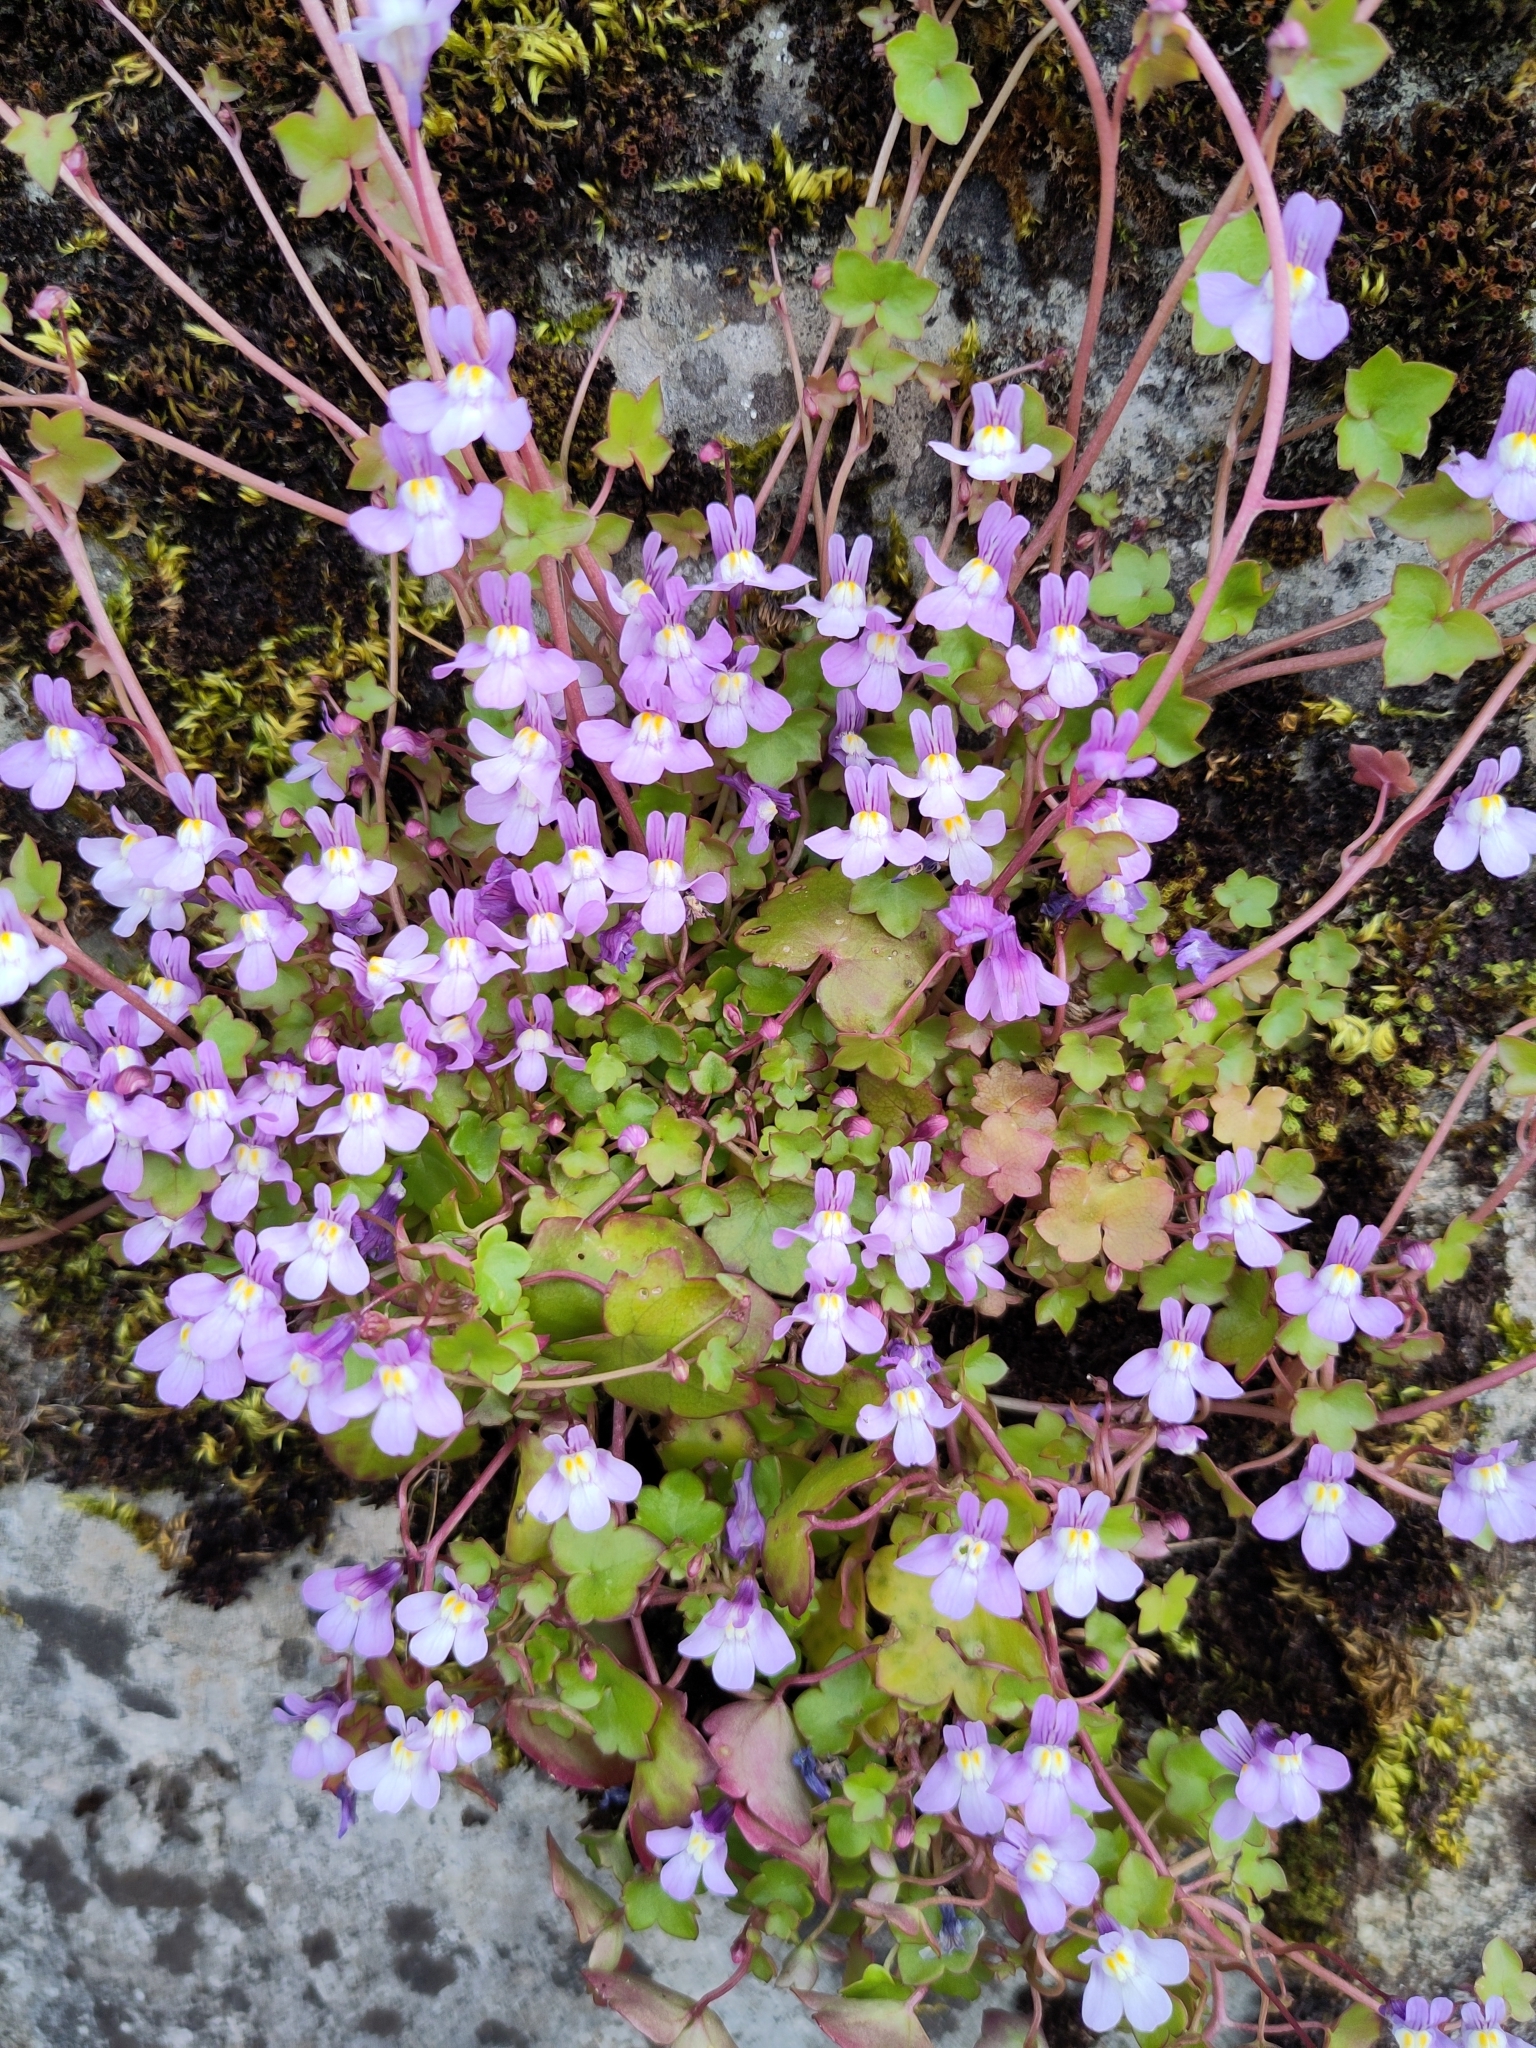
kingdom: Plantae
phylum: Tracheophyta
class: Magnoliopsida
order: Lamiales
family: Plantaginaceae
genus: Cymbalaria
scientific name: Cymbalaria muralis
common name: Ivy-leaved toadflax
